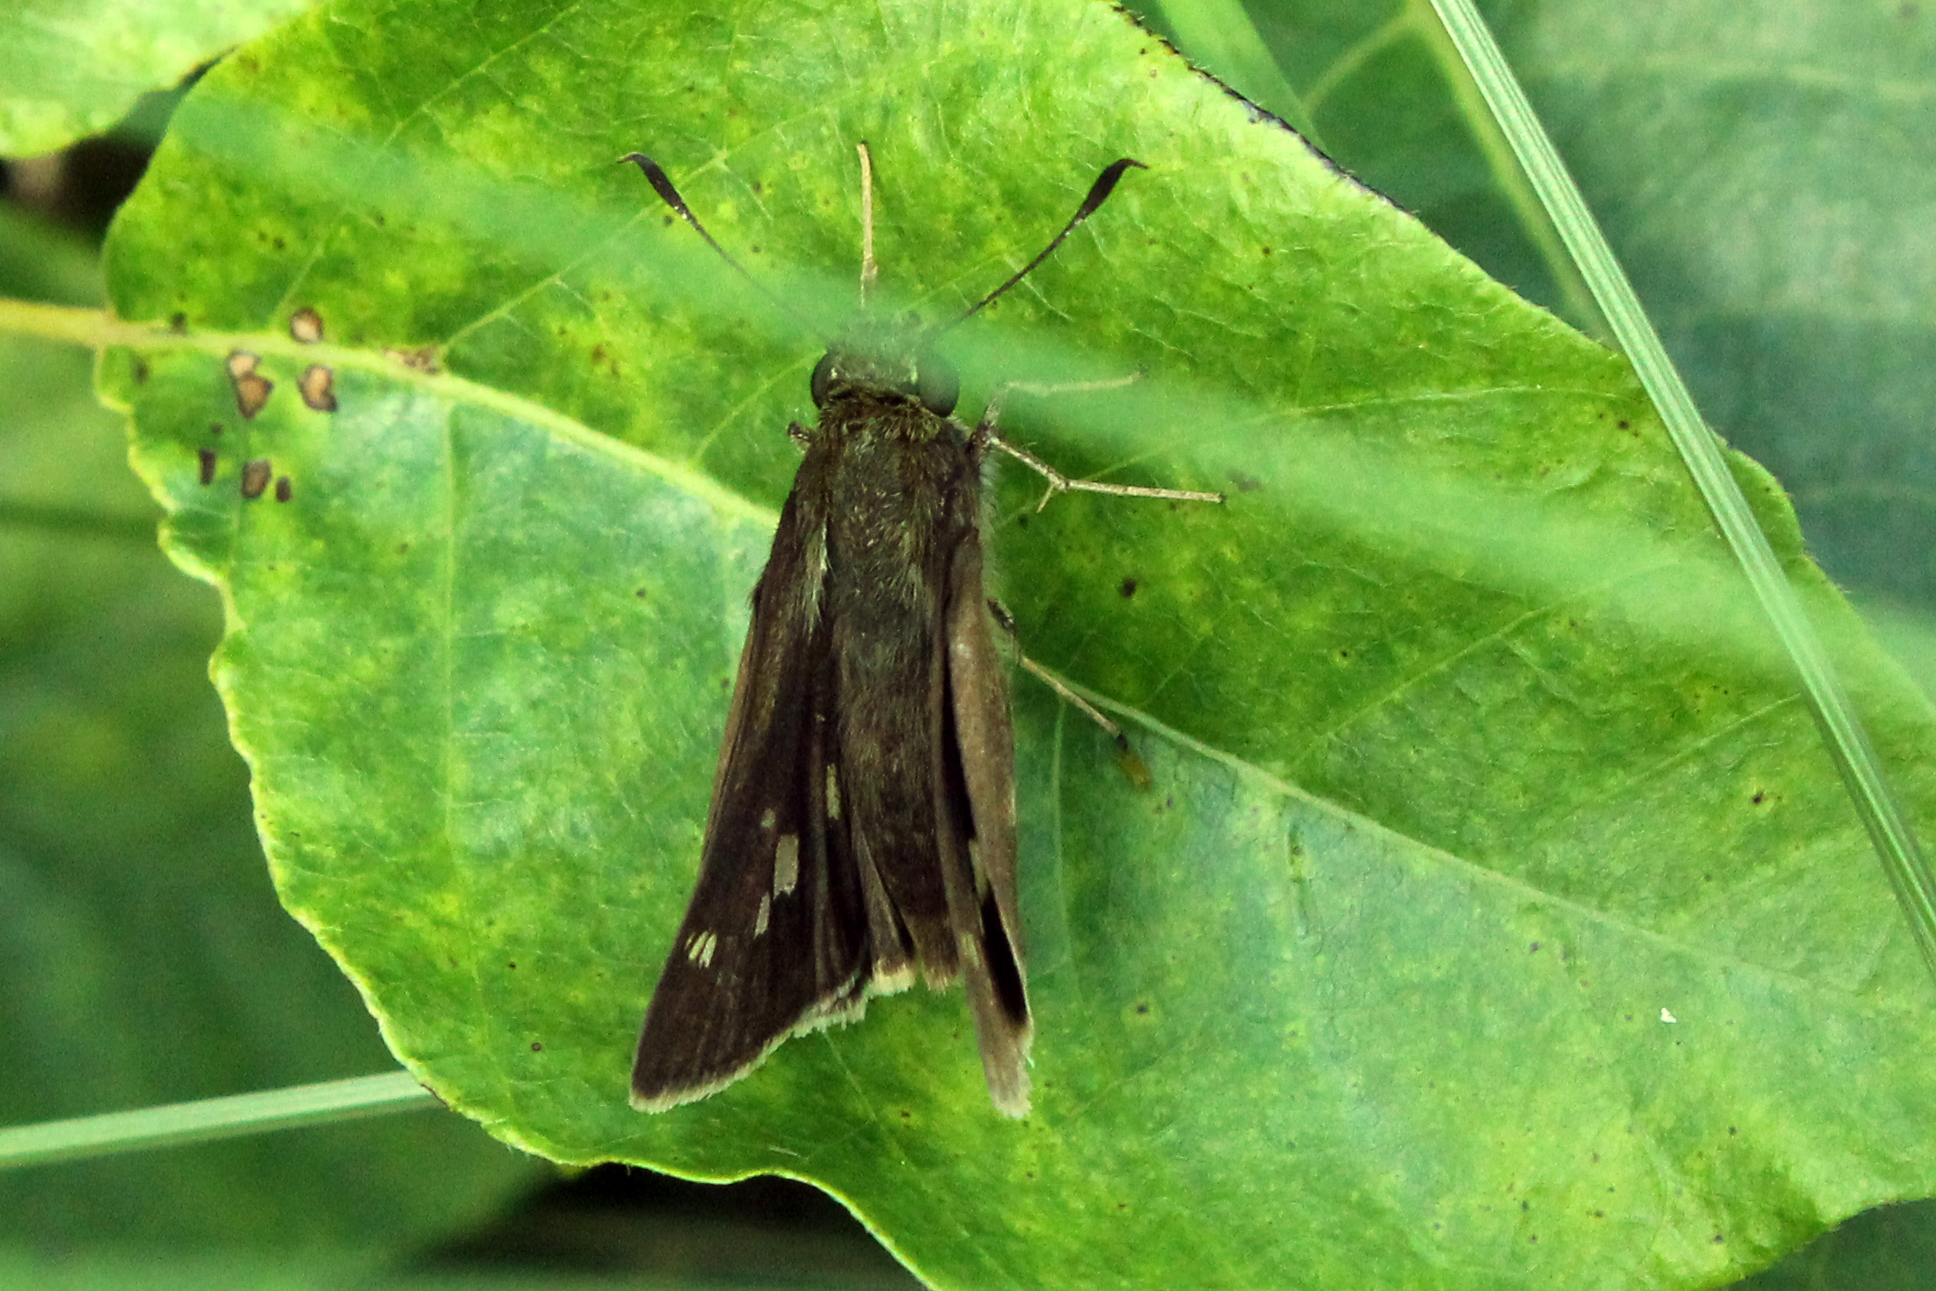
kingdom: Animalia
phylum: Arthropoda
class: Insecta
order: Lepidoptera
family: Hesperiidae
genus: Vernia
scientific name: Vernia verna
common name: Little glassywing
